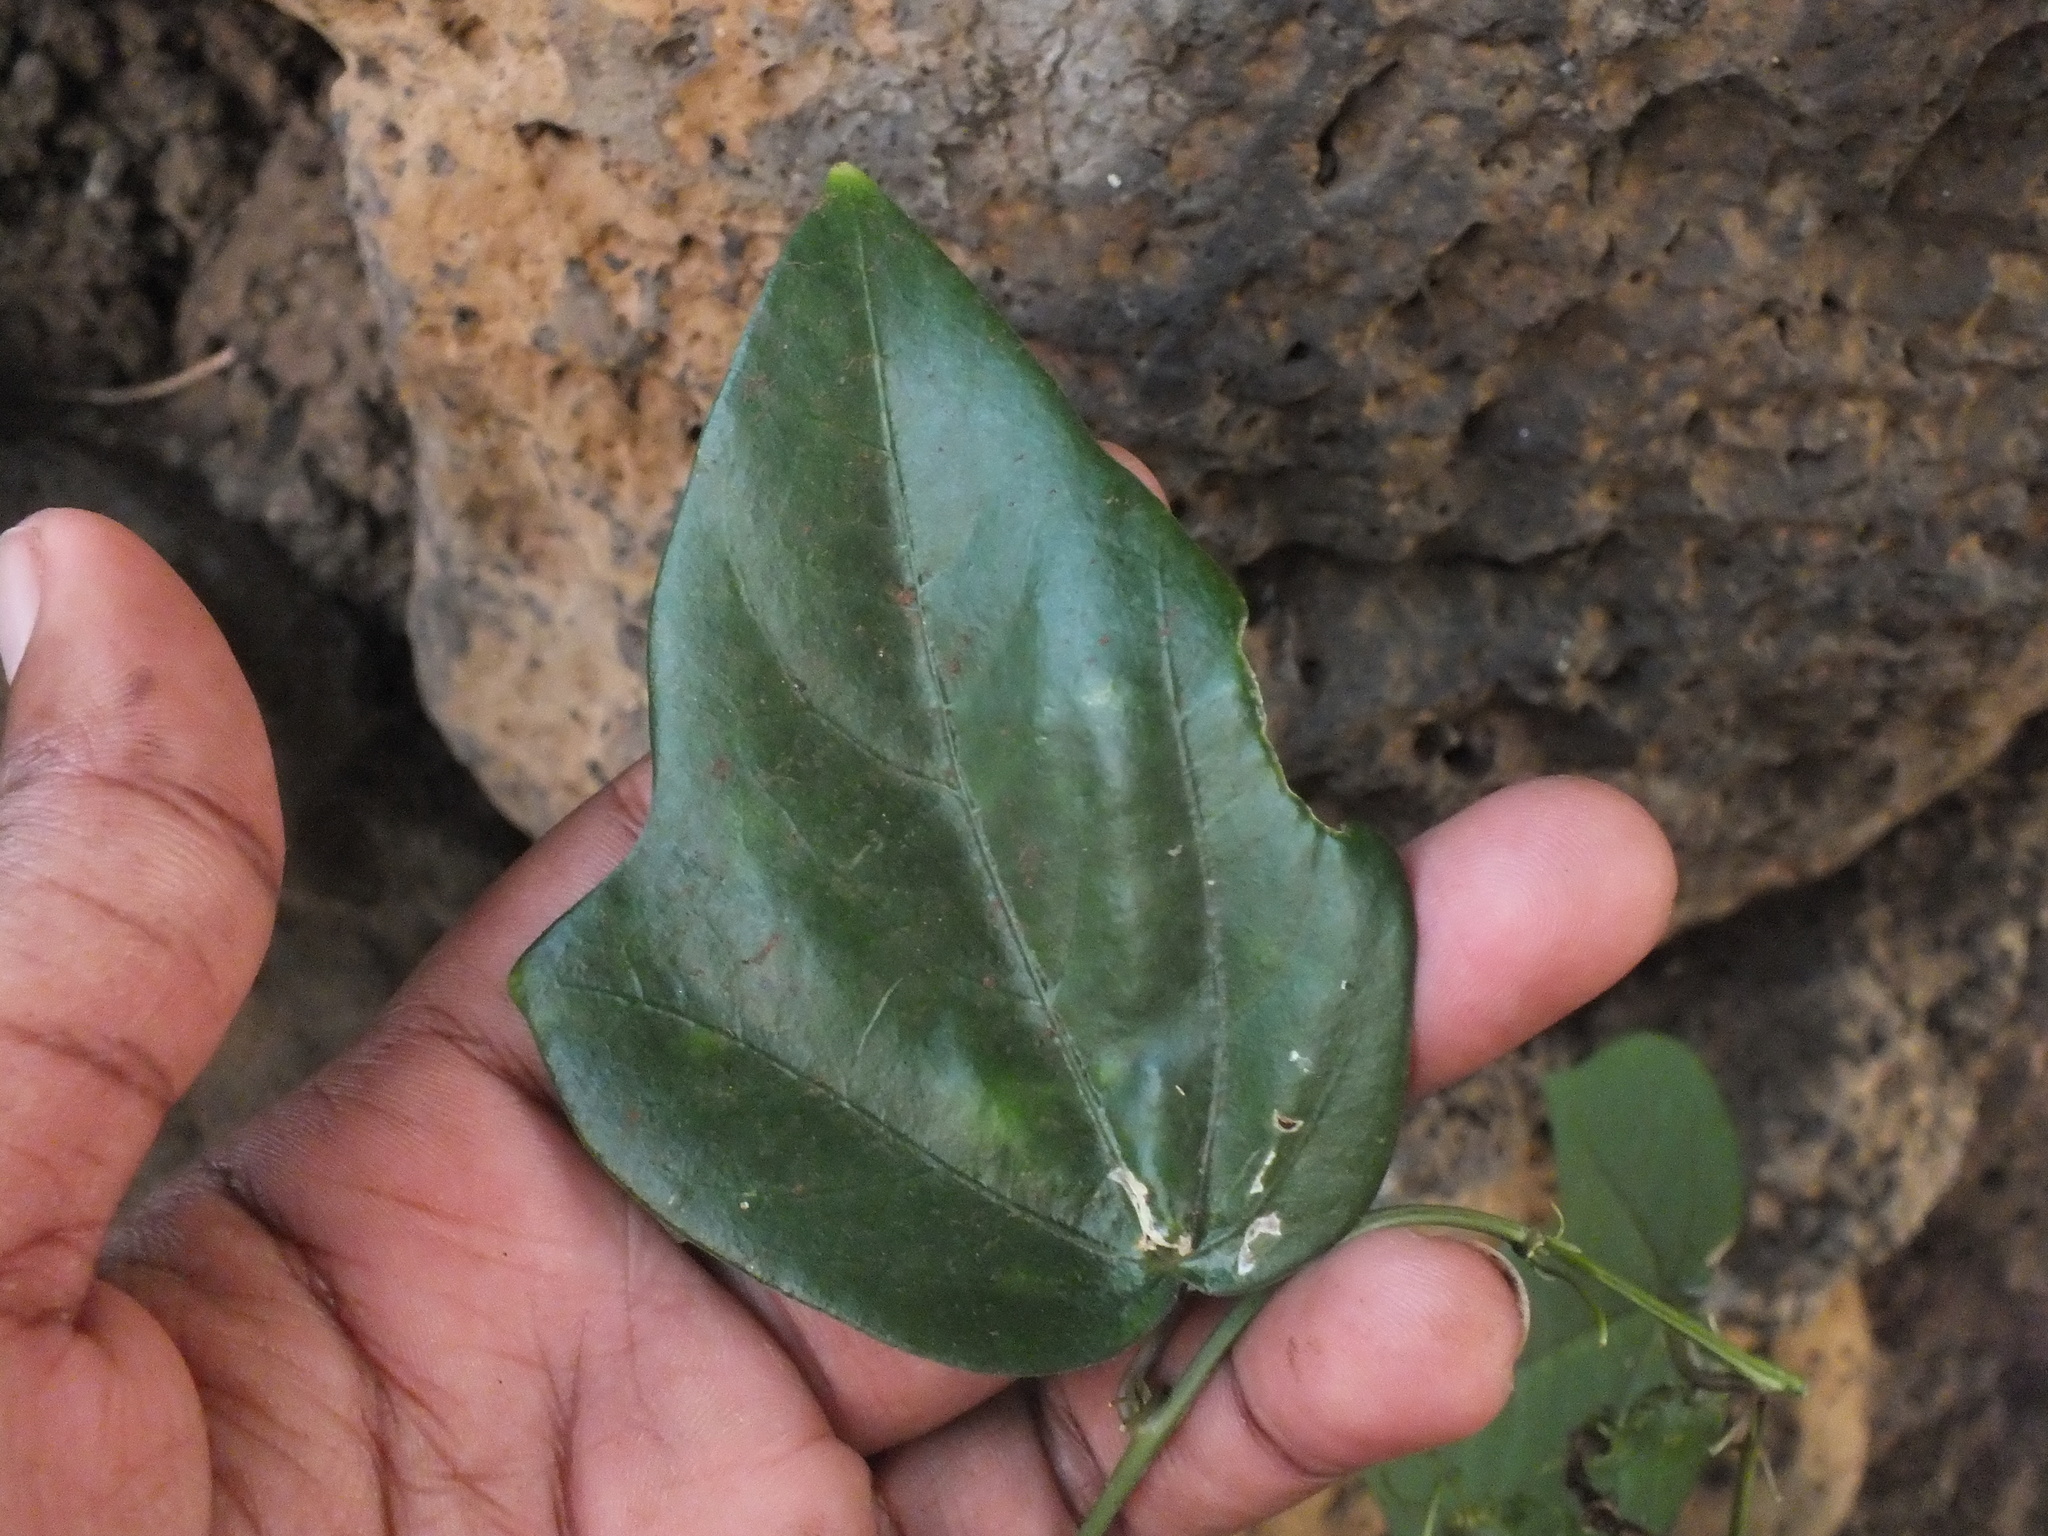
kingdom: Plantae
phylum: Tracheophyta
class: Magnoliopsida
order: Malpighiales
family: Passifloraceae
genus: Passiflora
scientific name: Passiflora pallida
